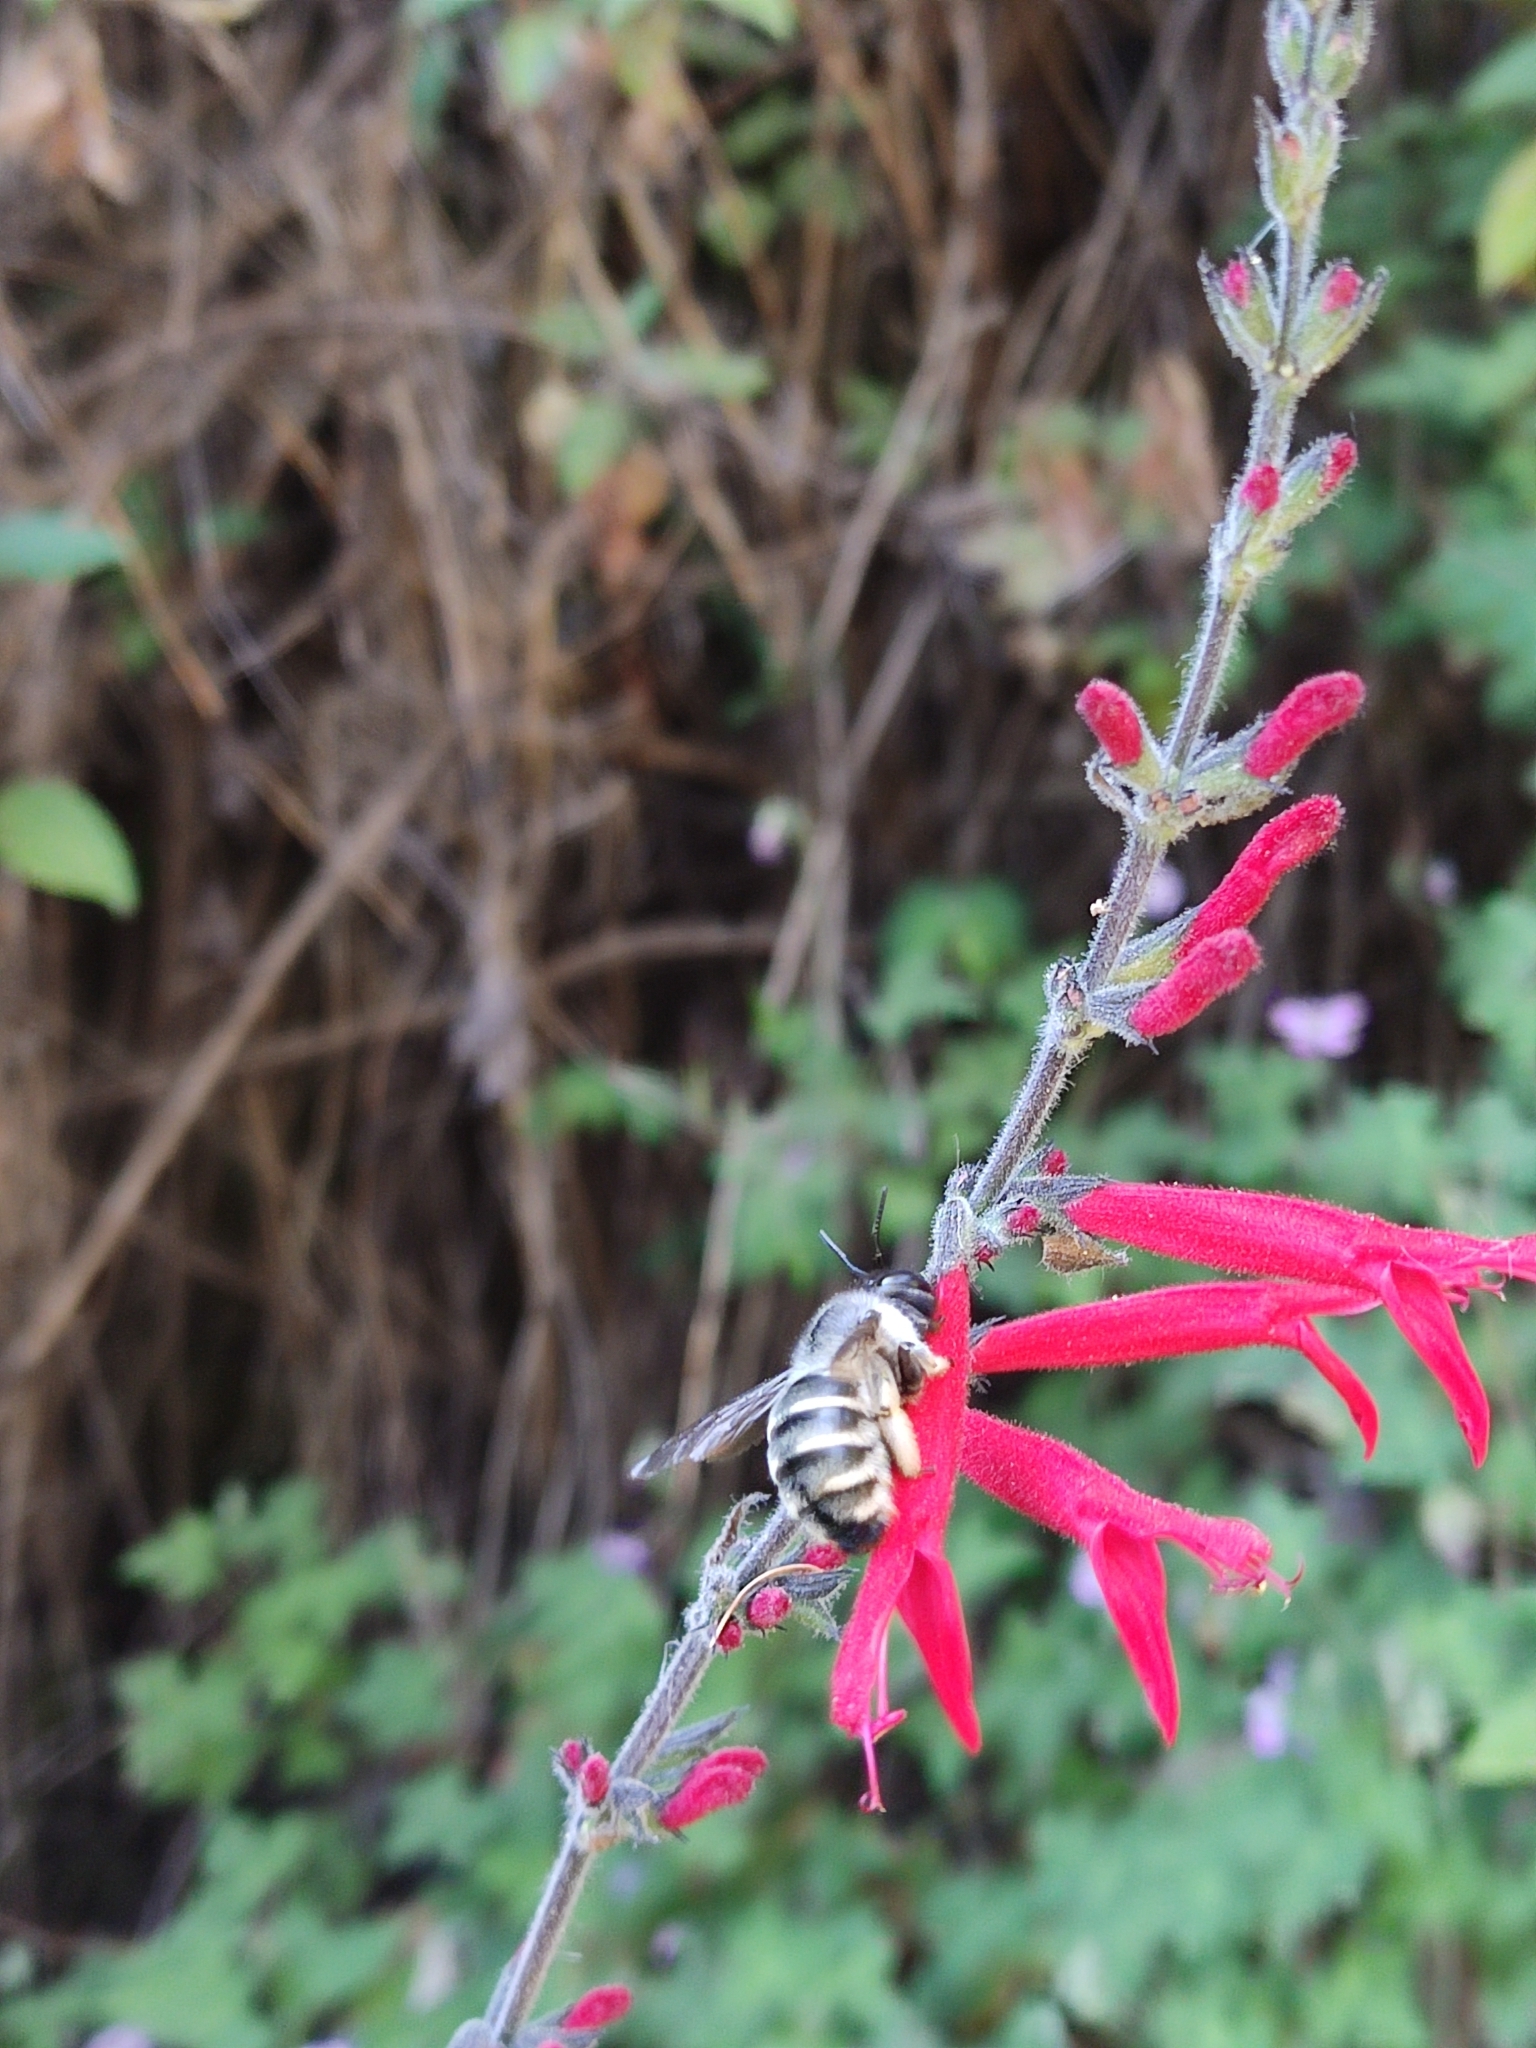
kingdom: Animalia
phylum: Arthropoda
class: Insecta
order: Hymenoptera
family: Apidae
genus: Xylocopa
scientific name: Xylocopa tabaniformis
